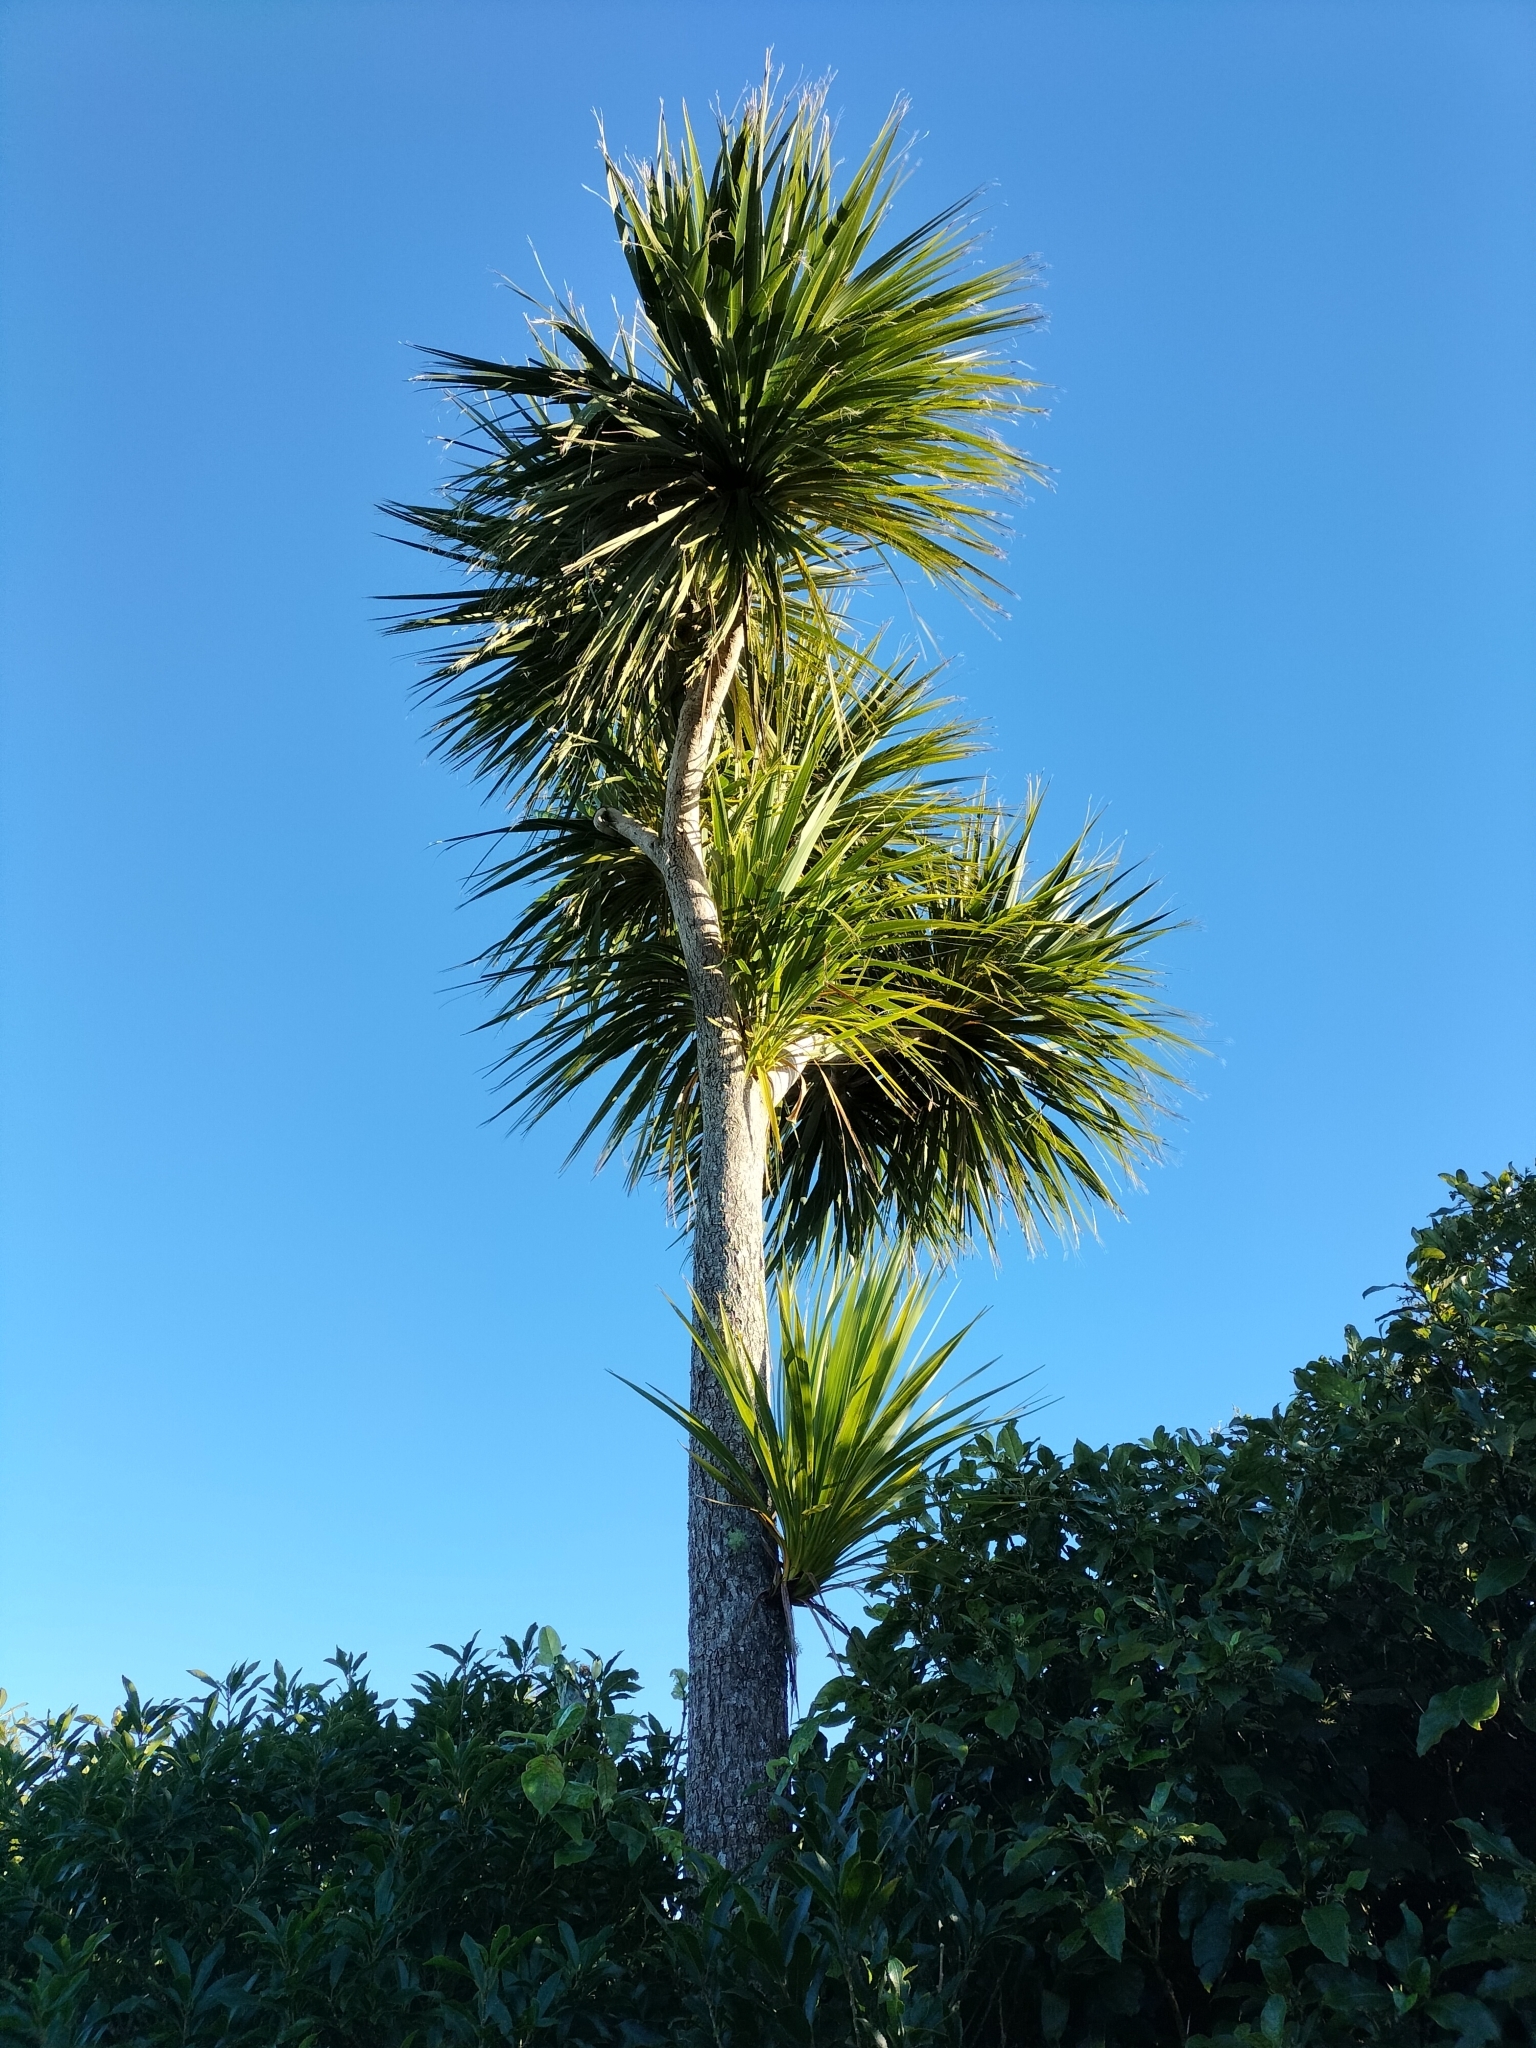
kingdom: Plantae
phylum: Tracheophyta
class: Liliopsida
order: Asparagales
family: Asparagaceae
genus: Cordyline
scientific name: Cordyline australis
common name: Cabbage-palm
